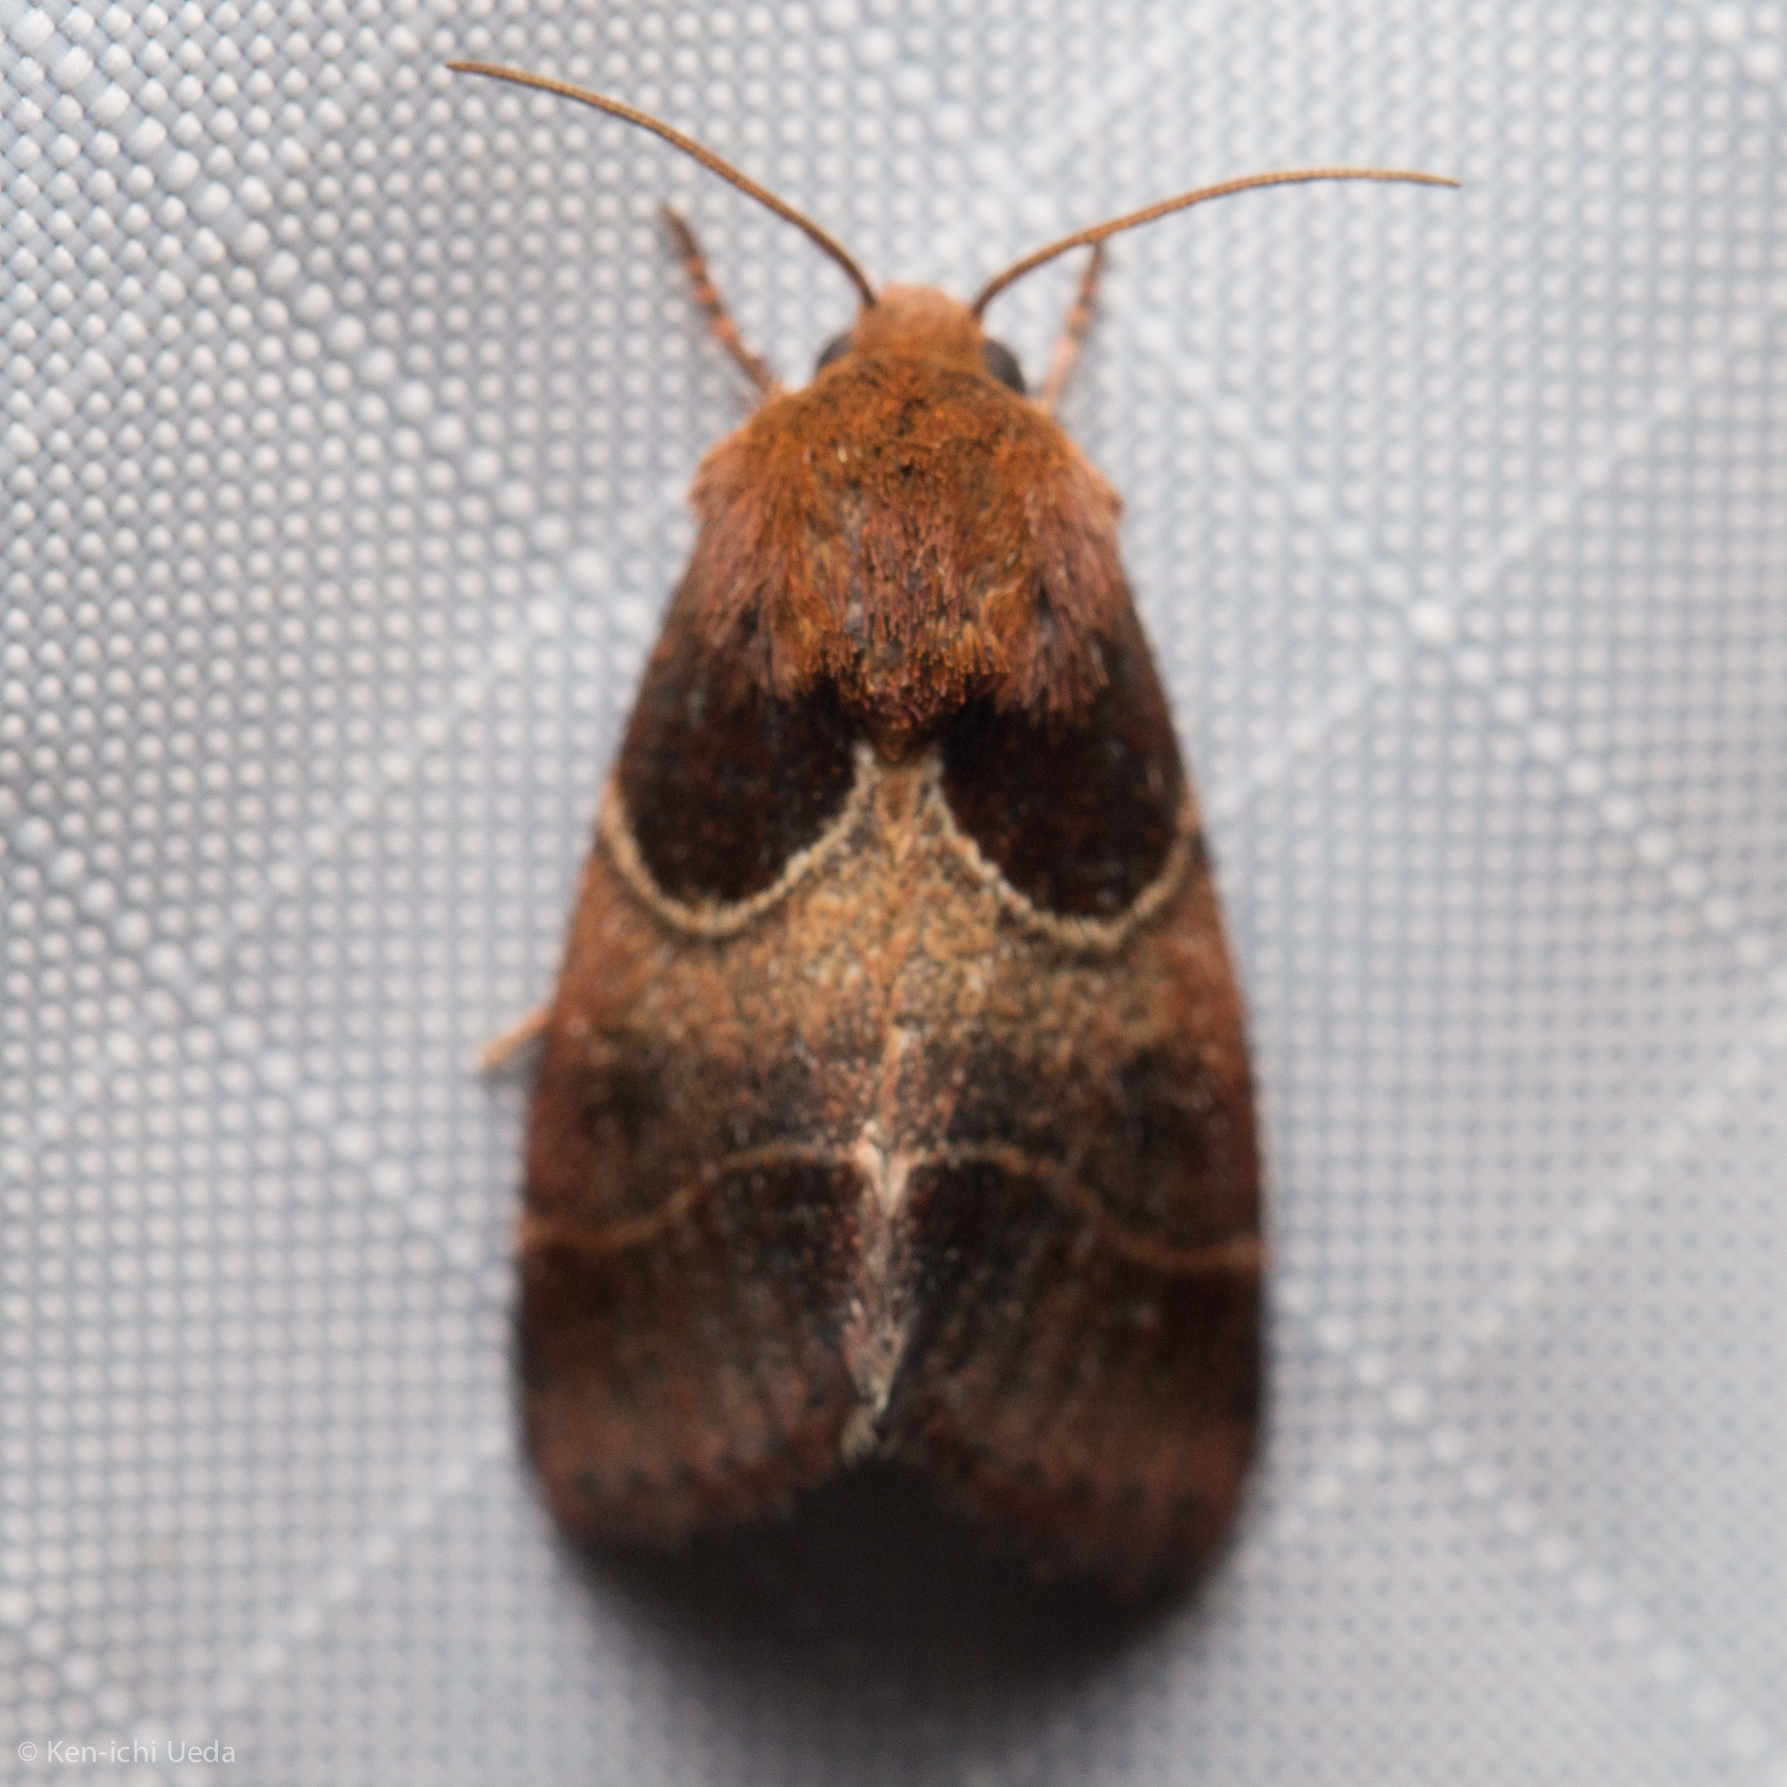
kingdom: Animalia
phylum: Arthropoda
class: Insecta
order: Lepidoptera
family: Noctuidae
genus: Schinia
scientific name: Schinia arcigera
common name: Arcigera flower moth
